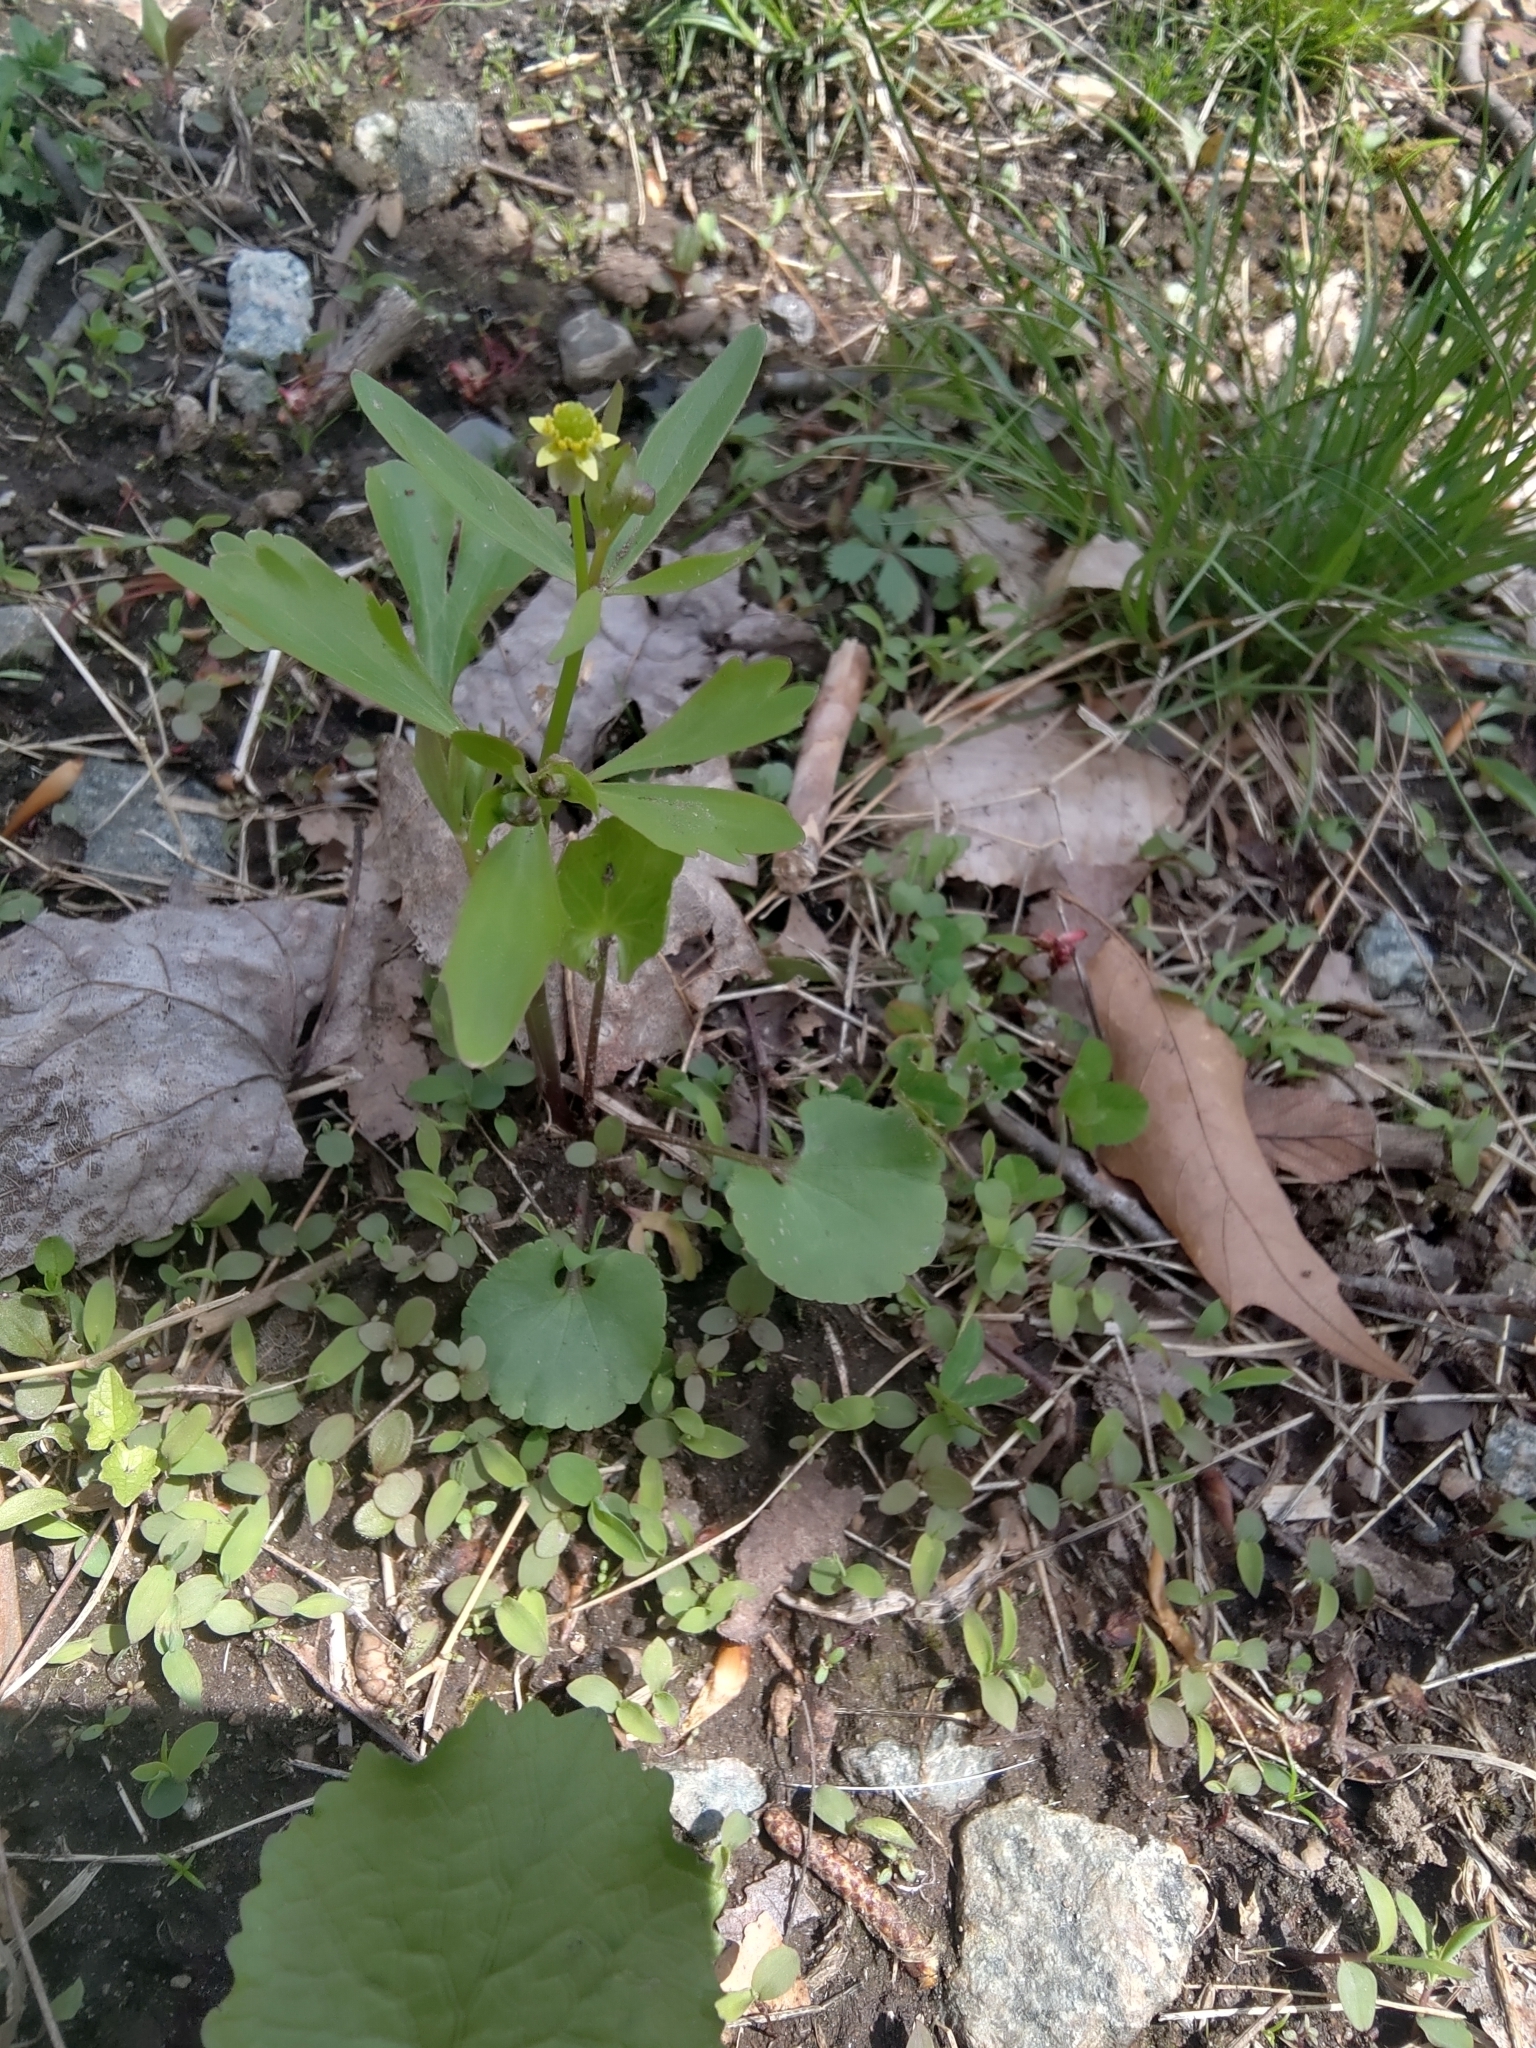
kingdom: Plantae
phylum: Tracheophyta
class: Magnoliopsida
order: Ranunculales
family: Ranunculaceae
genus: Ranunculus
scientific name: Ranunculus abortivus
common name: Early wood buttercup
